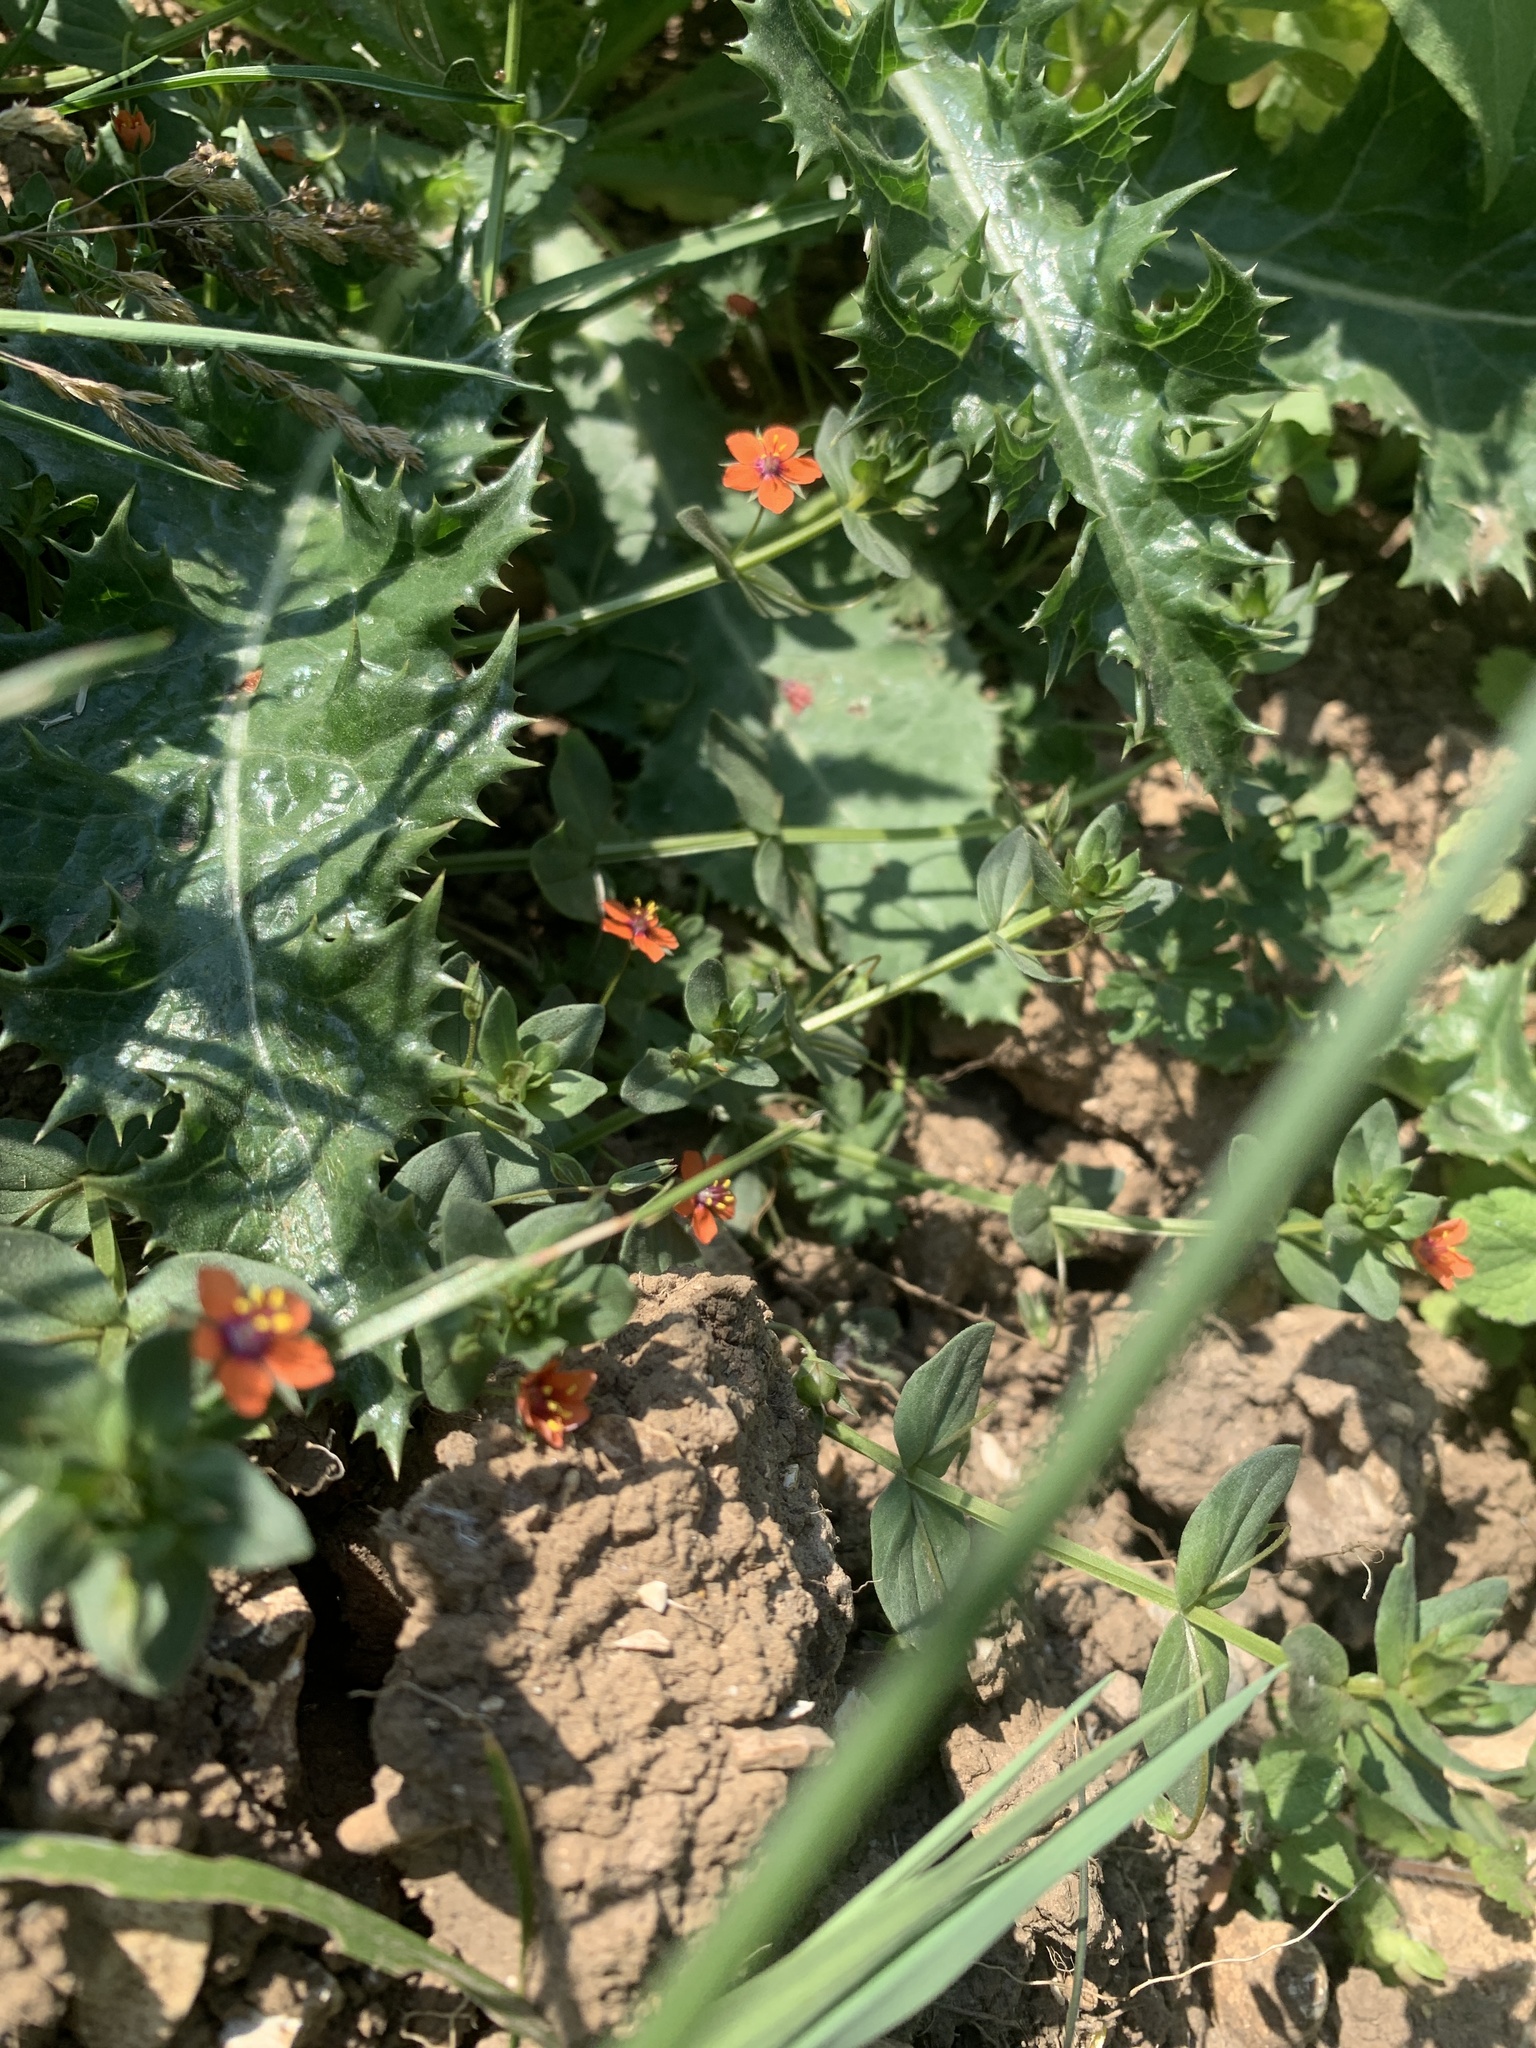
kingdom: Plantae
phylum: Tracheophyta
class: Magnoliopsida
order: Ericales
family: Primulaceae
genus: Lysimachia
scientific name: Lysimachia arvensis
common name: Scarlet pimpernel
